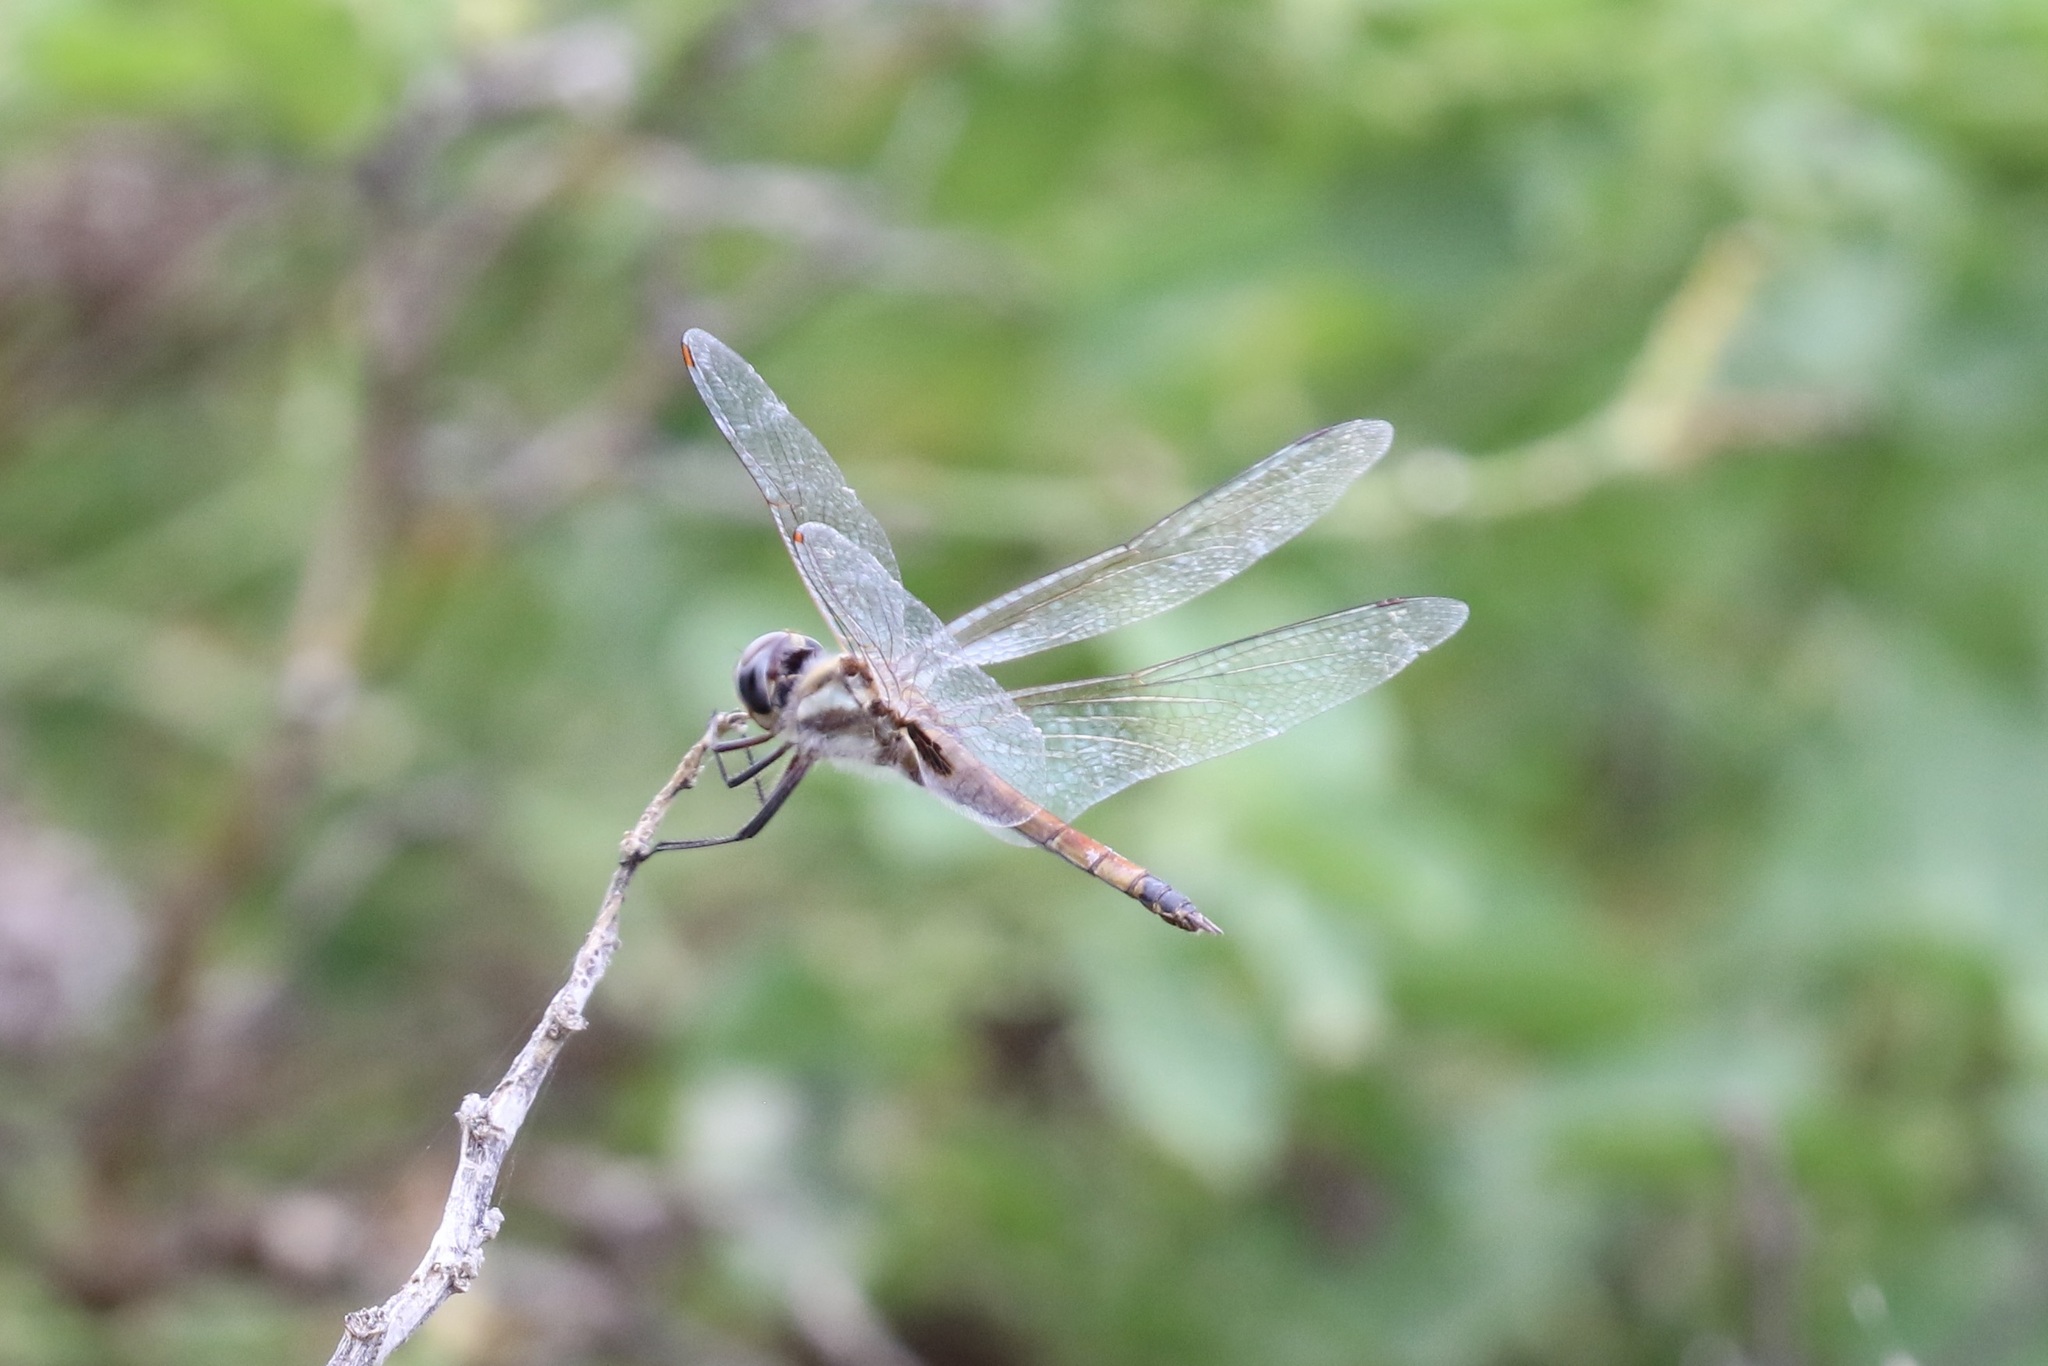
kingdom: Animalia
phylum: Arthropoda
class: Insecta
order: Odonata
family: Libellulidae
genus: Tramea
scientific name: Tramea darwini
